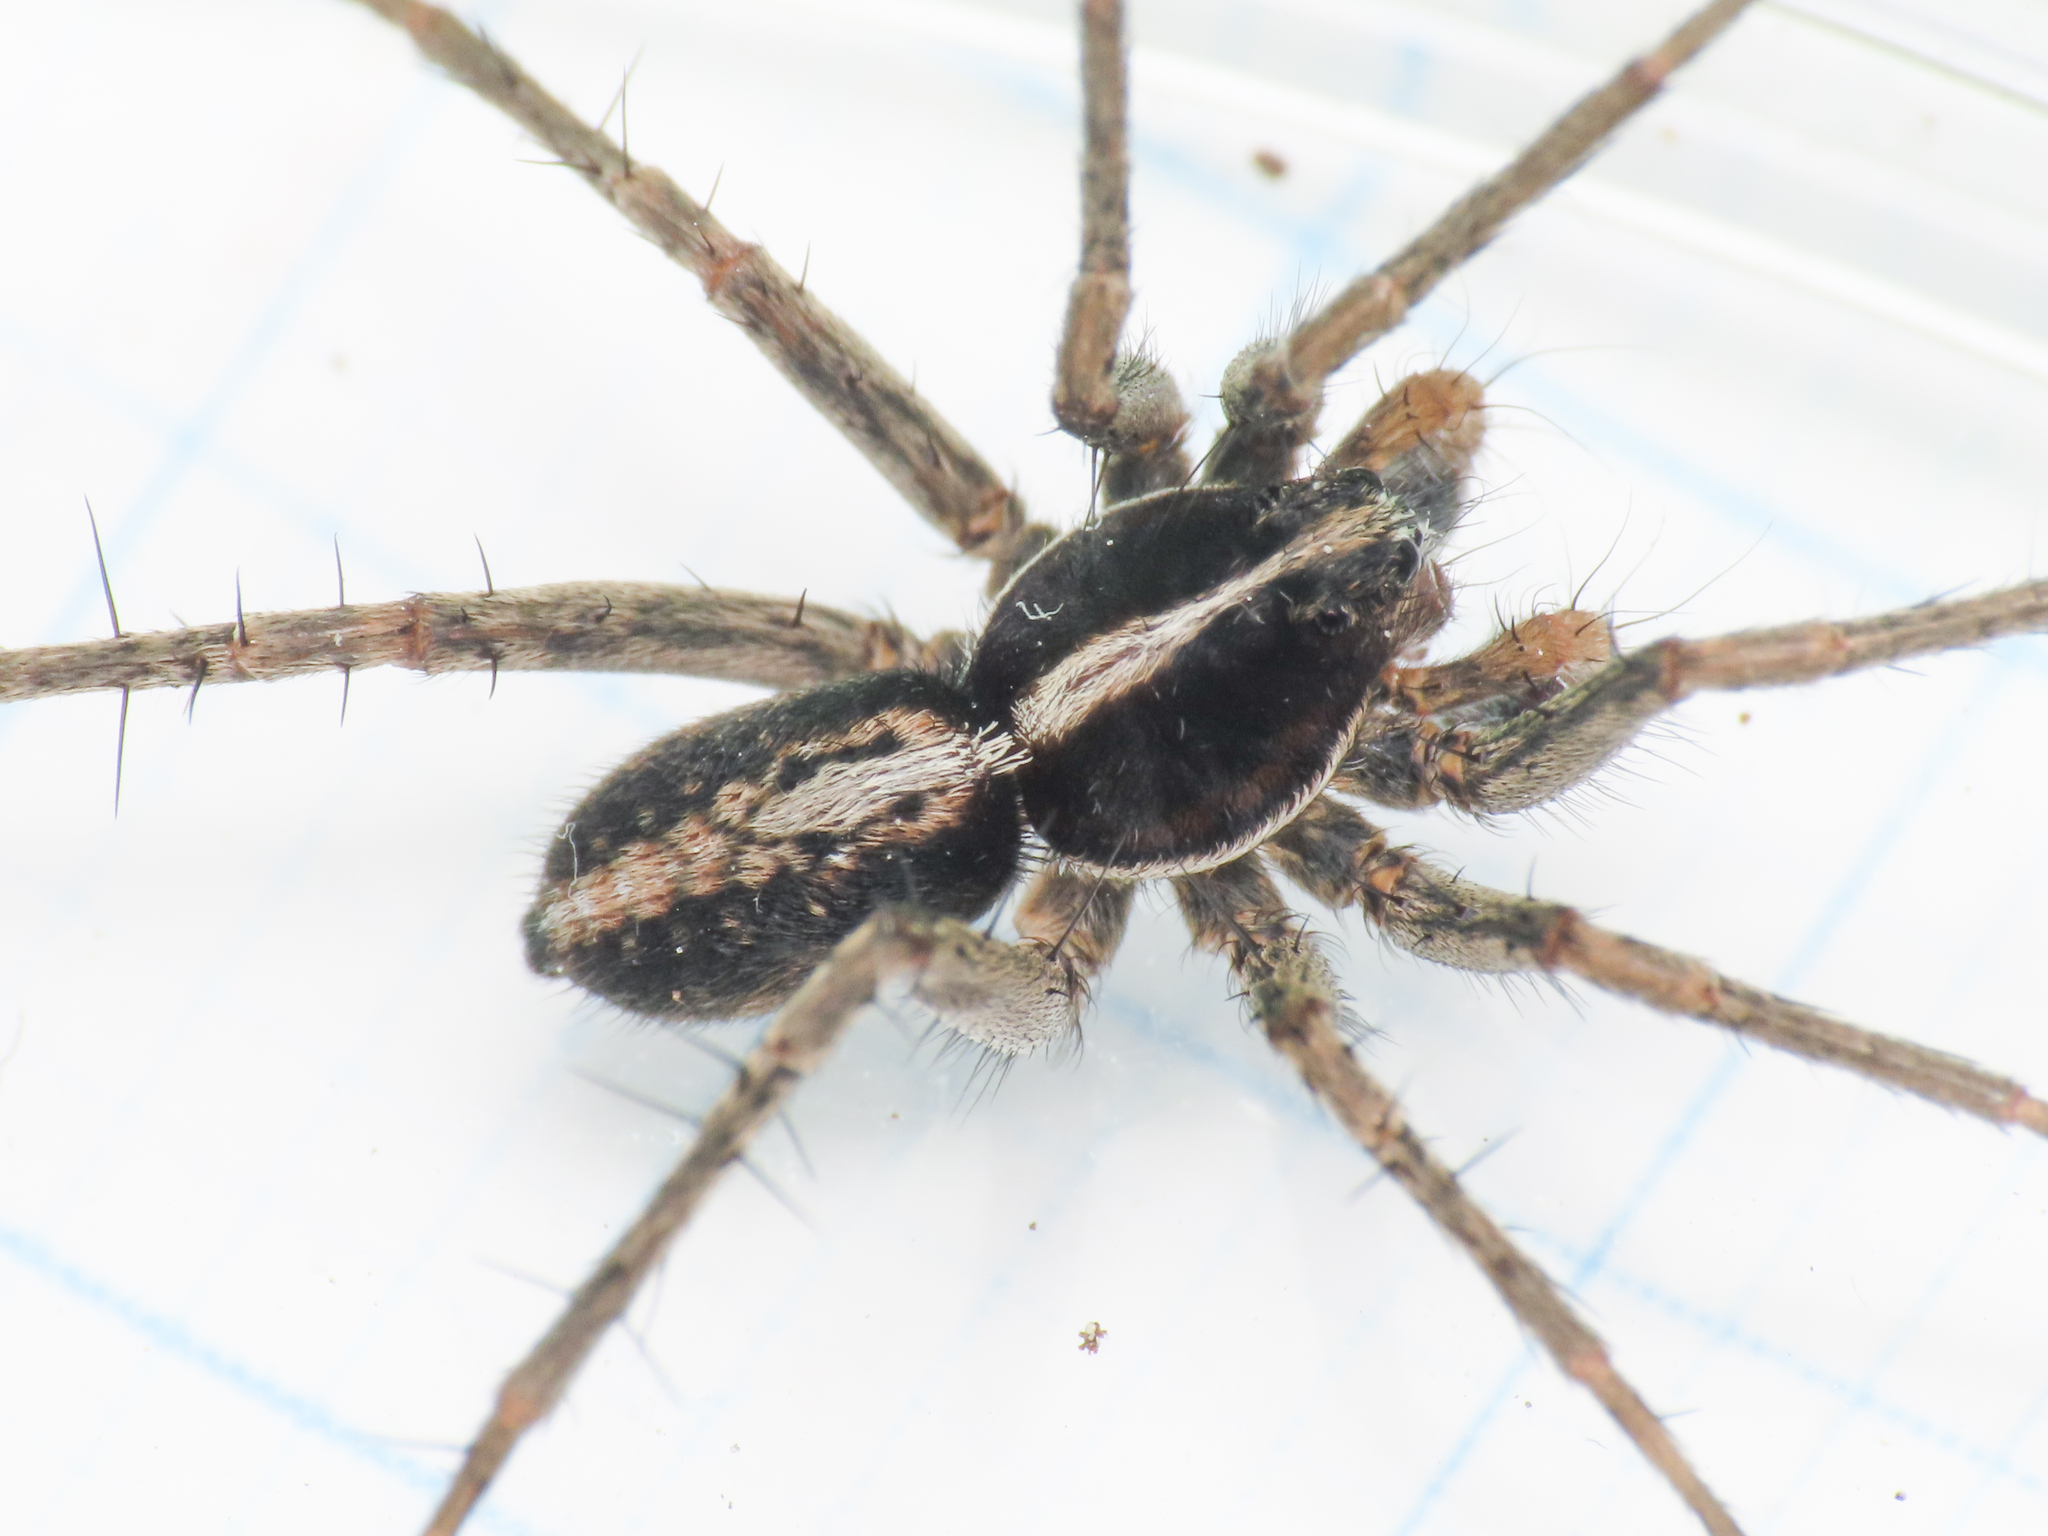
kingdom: Animalia
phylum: Arthropoda
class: Arachnida
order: Araneae
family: Lycosidae
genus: Pardosa
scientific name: Pardosa albatula
